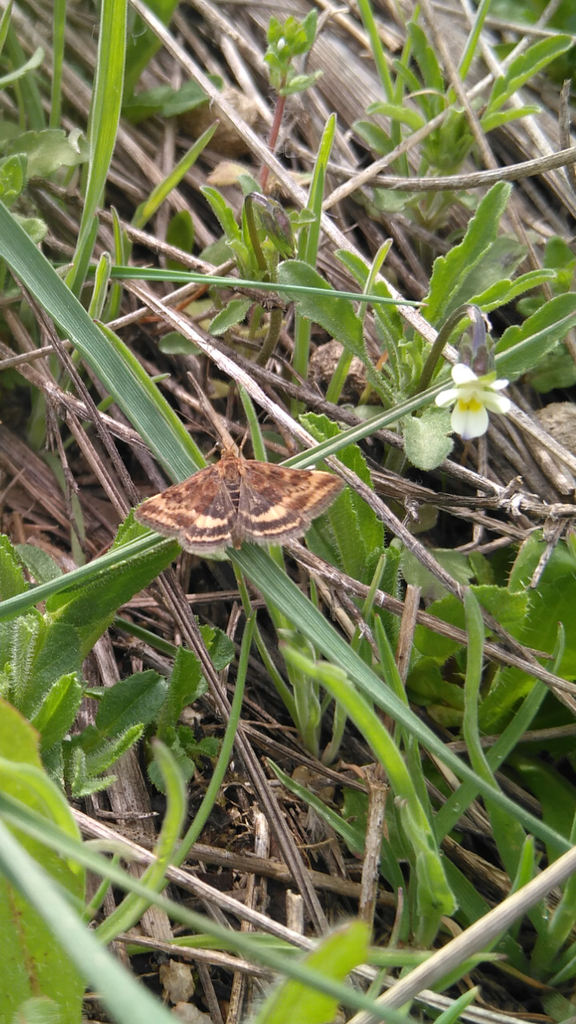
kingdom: Animalia
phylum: Arthropoda
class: Insecta
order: Lepidoptera
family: Crambidae
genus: Pyrausta
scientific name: Pyrausta despicata
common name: Straw-barred pearl
